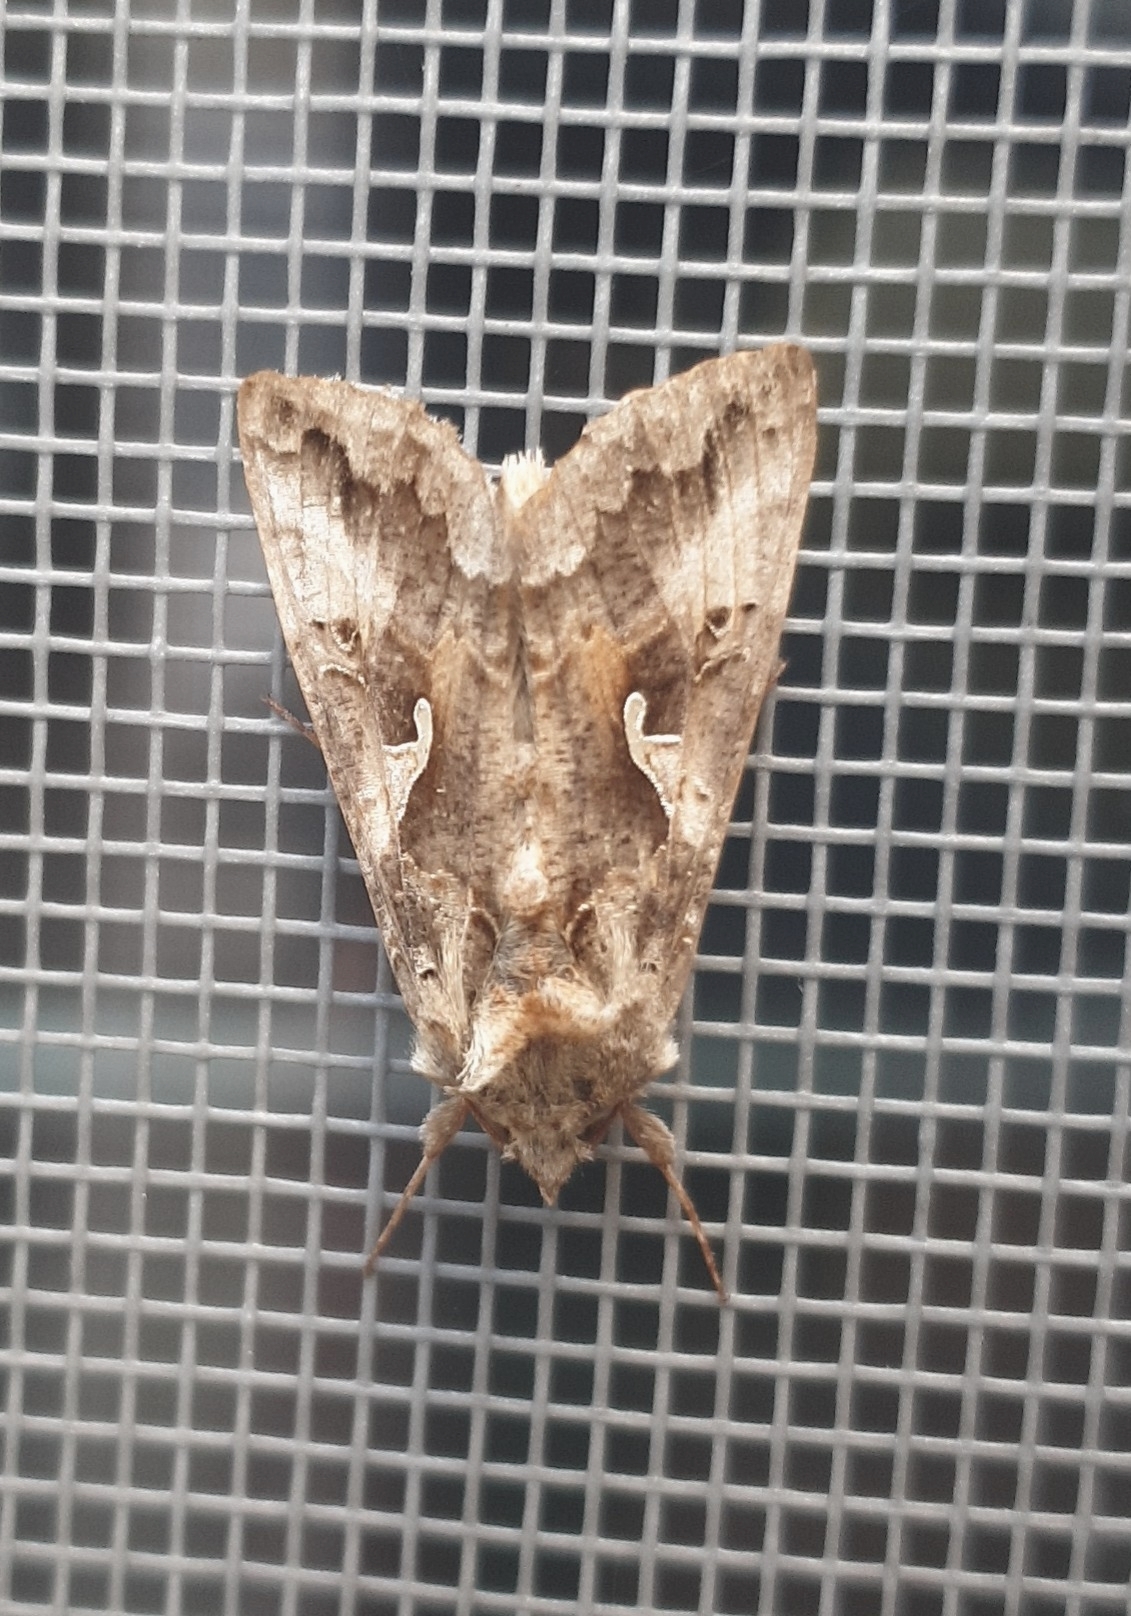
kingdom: Animalia
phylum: Arthropoda
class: Insecta
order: Lepidoptera
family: Noctuidae
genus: Autographa
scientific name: Autographa gamma
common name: Silver y
